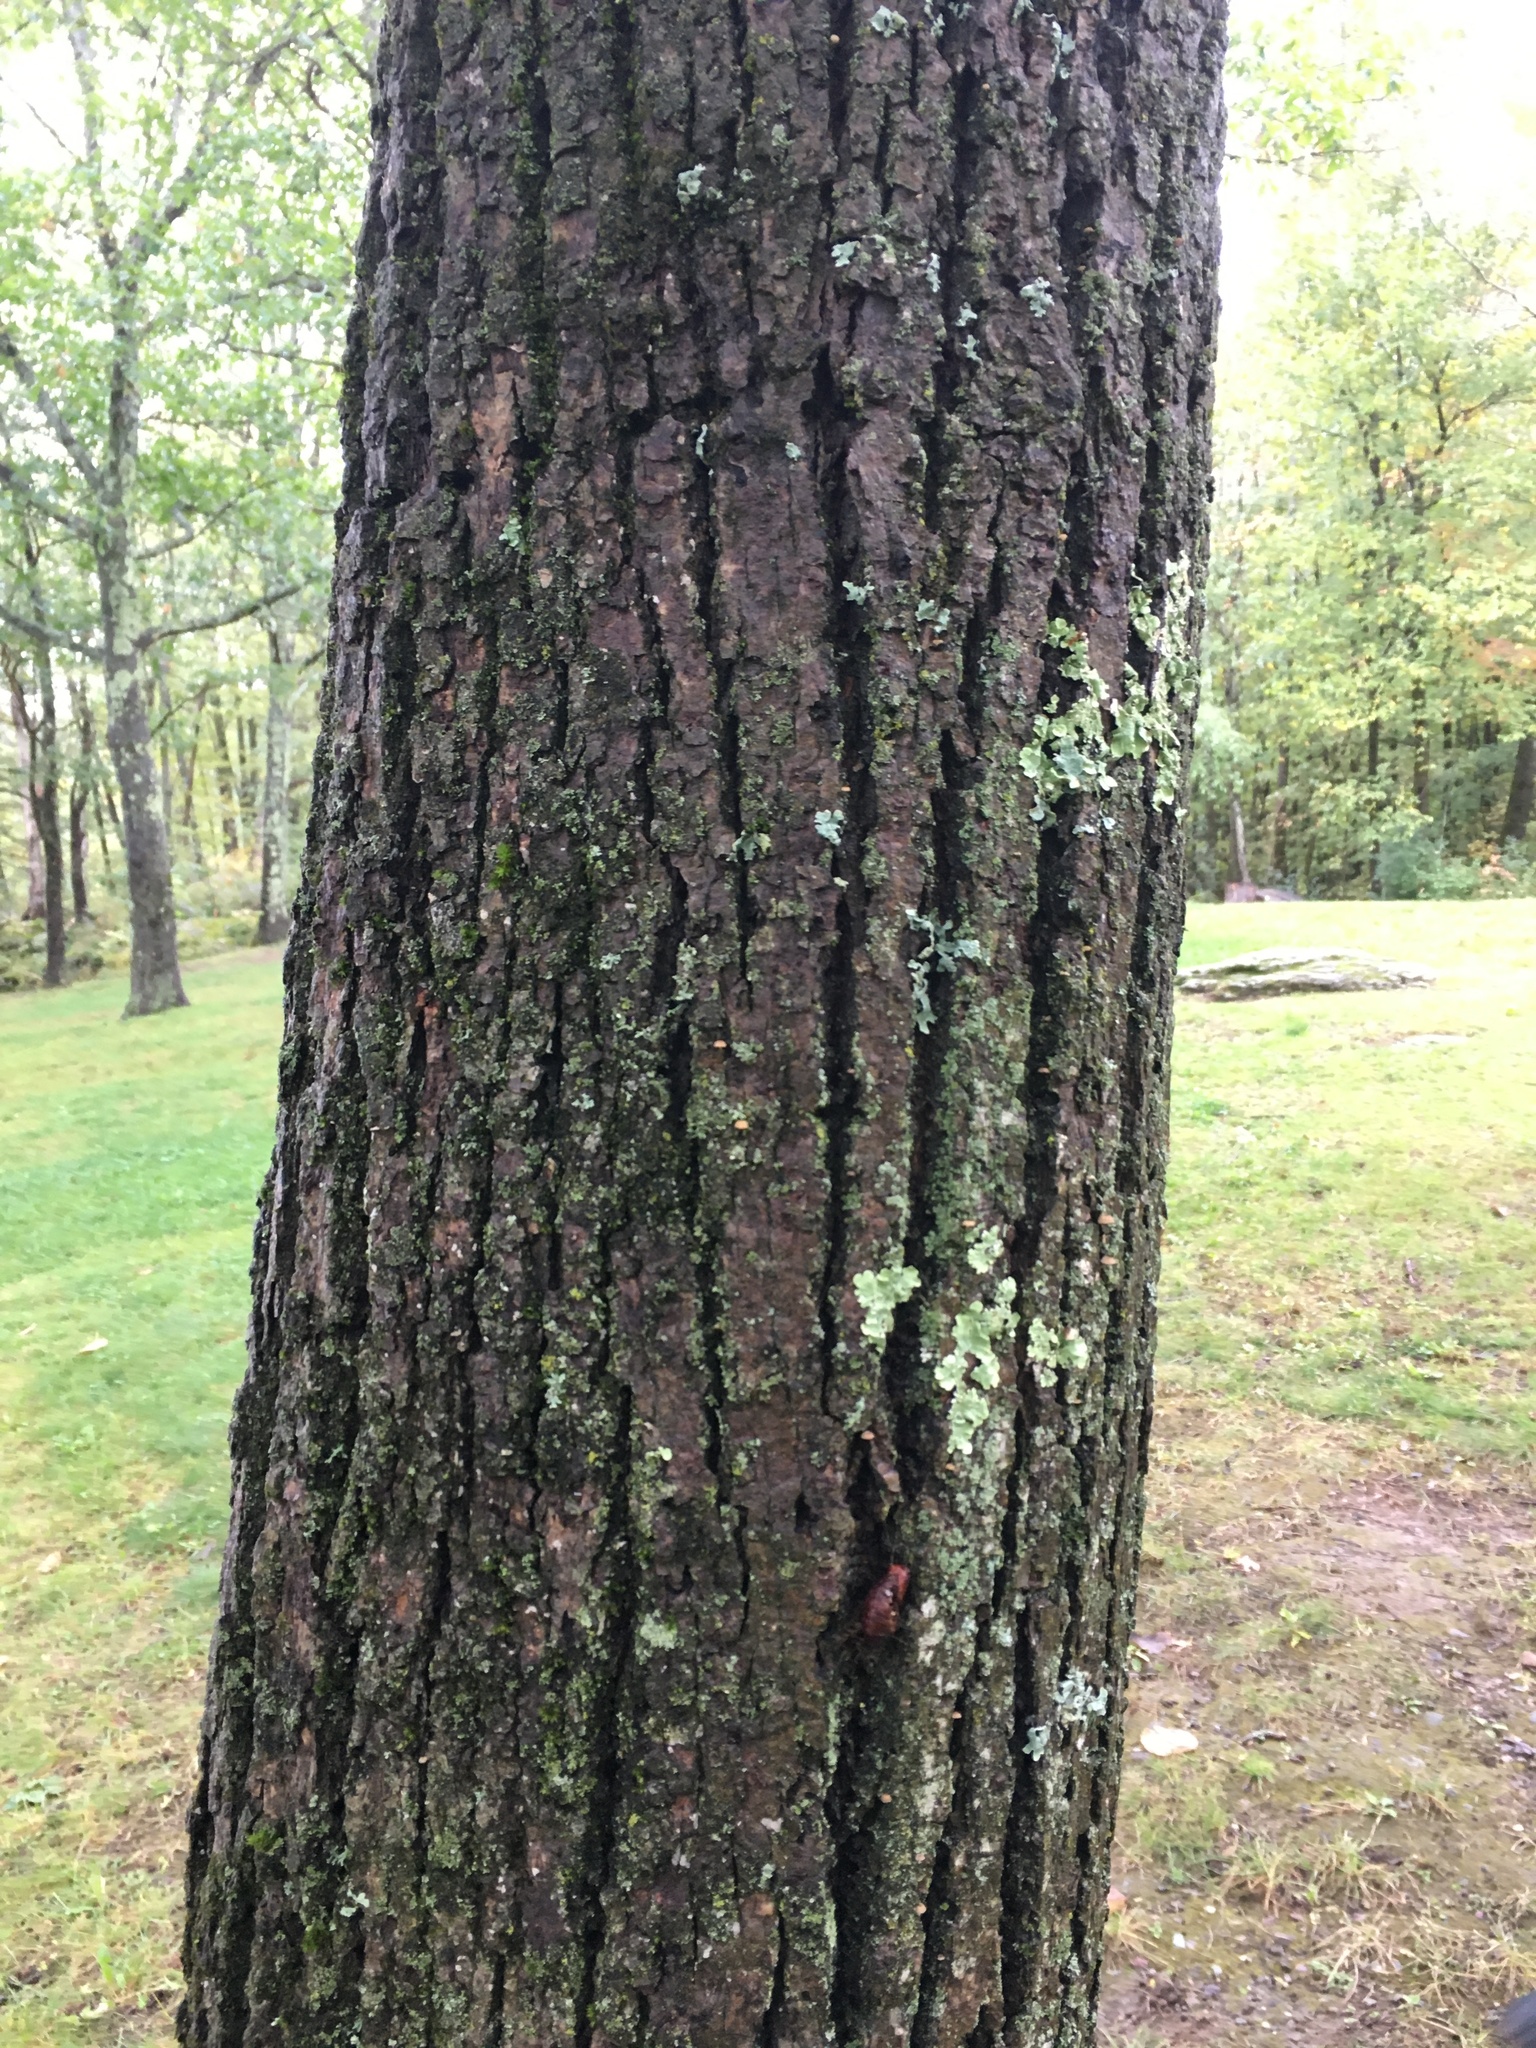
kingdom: Plantae
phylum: Tracheophyta
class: Magnoliopsida
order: Malvales
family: Malvaceae
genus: Tilia
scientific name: Tilia americana
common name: Basswood
